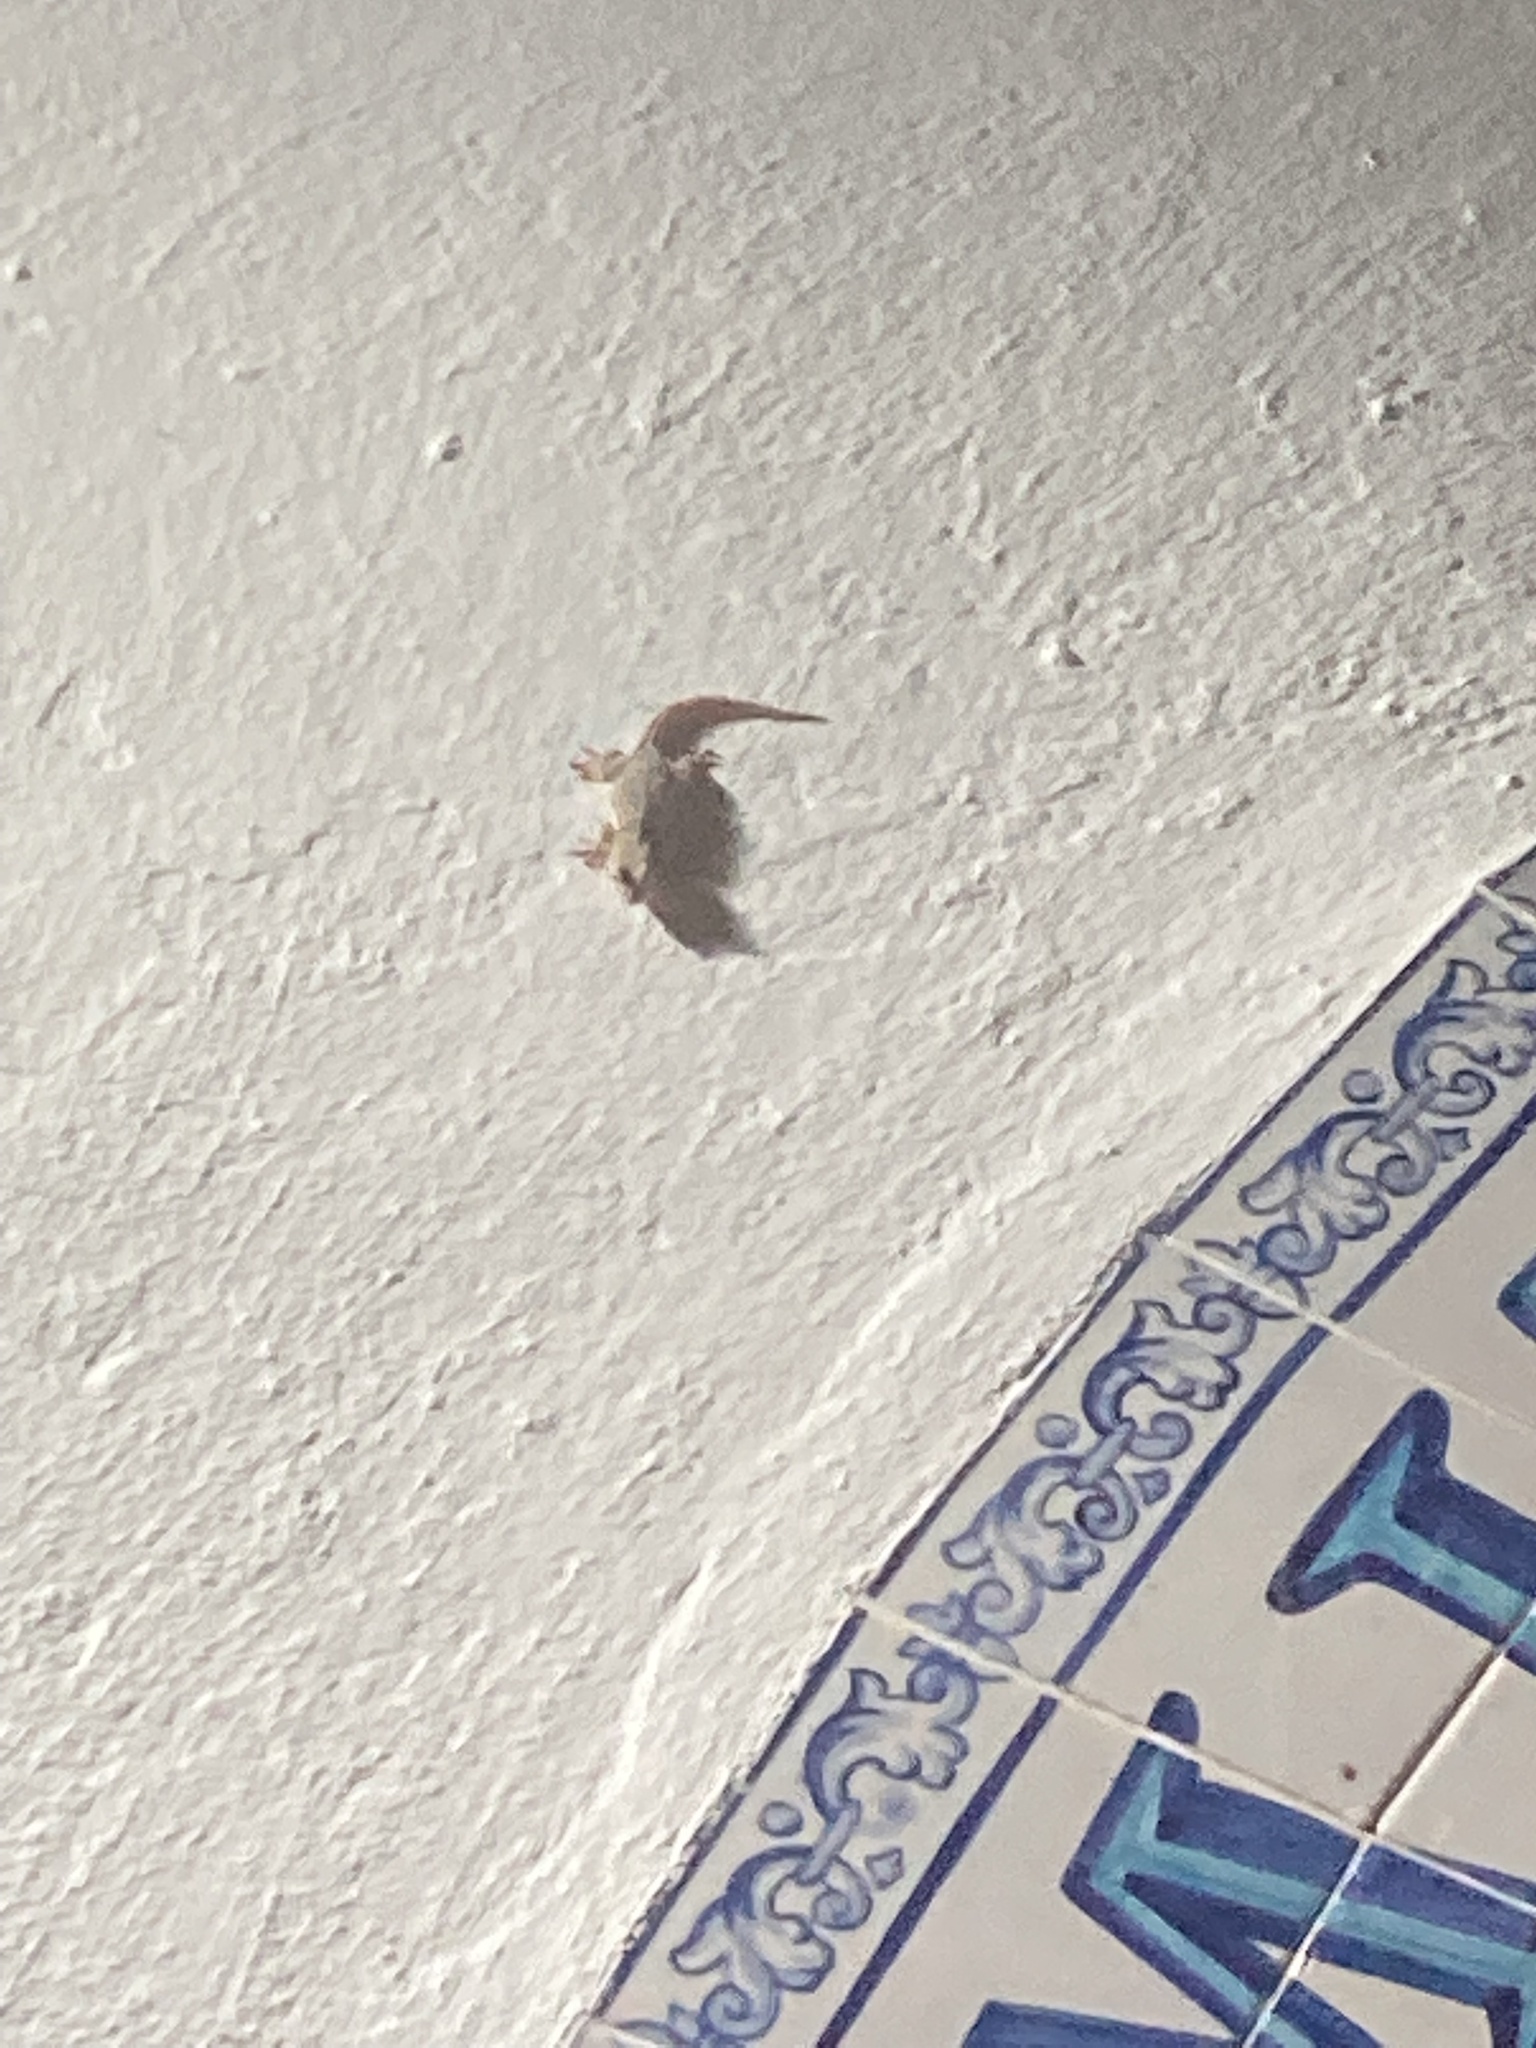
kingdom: Animalia
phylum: Chordata
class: Squamata
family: Phyllodactylidae
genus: Tarentola
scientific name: Tarentola mauritanica
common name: Moorish gecko
